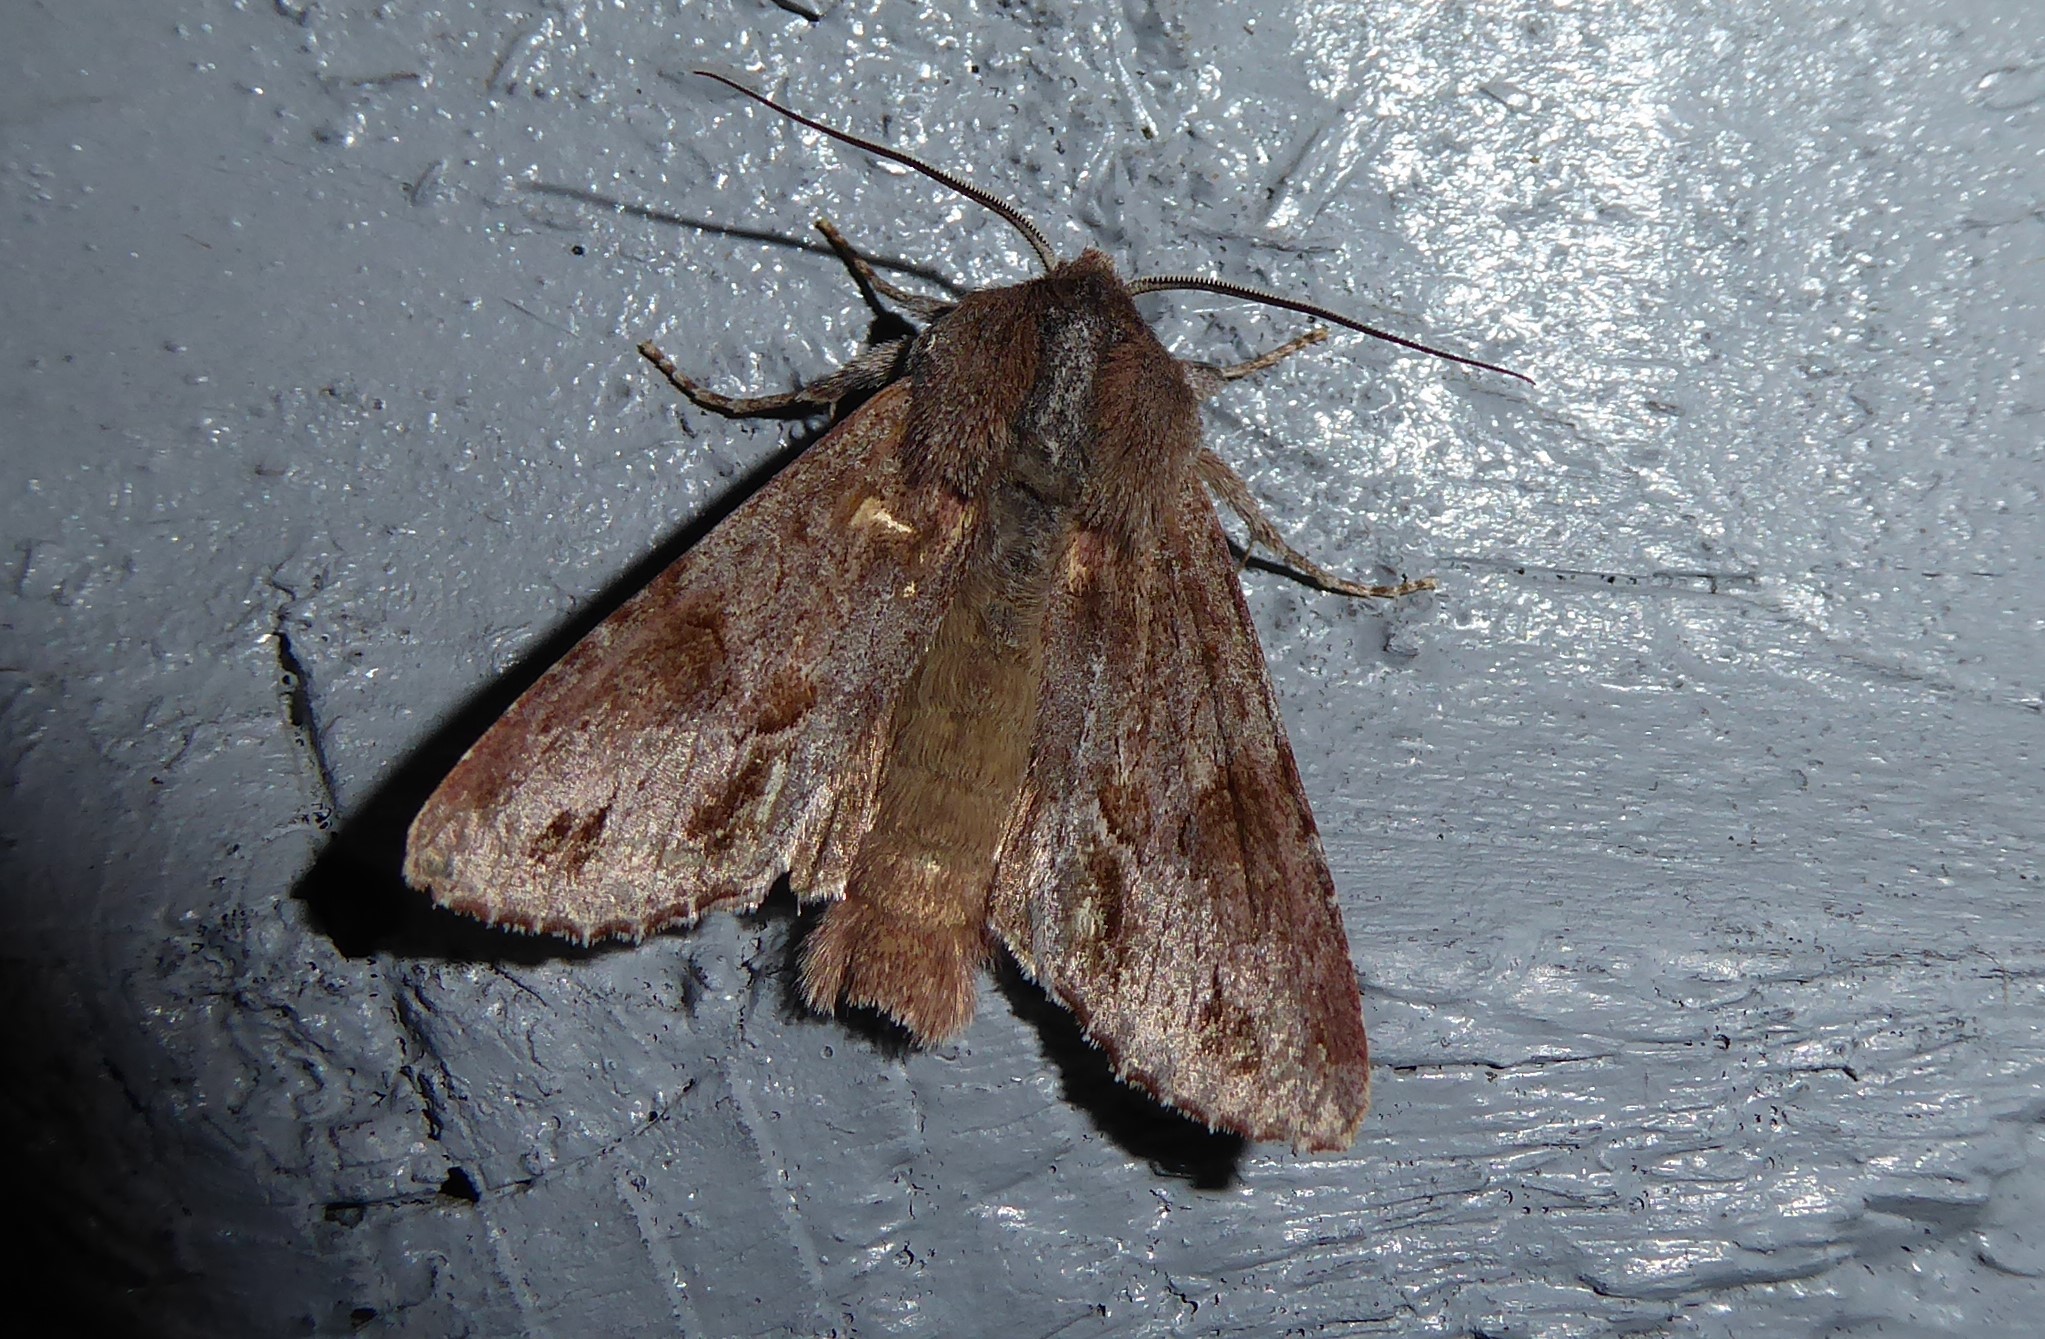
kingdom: Animalia
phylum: Arthropoda
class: Insecta
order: Lepidoptera
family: Noctuidae
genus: Ichneutica
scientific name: Ichneutica
